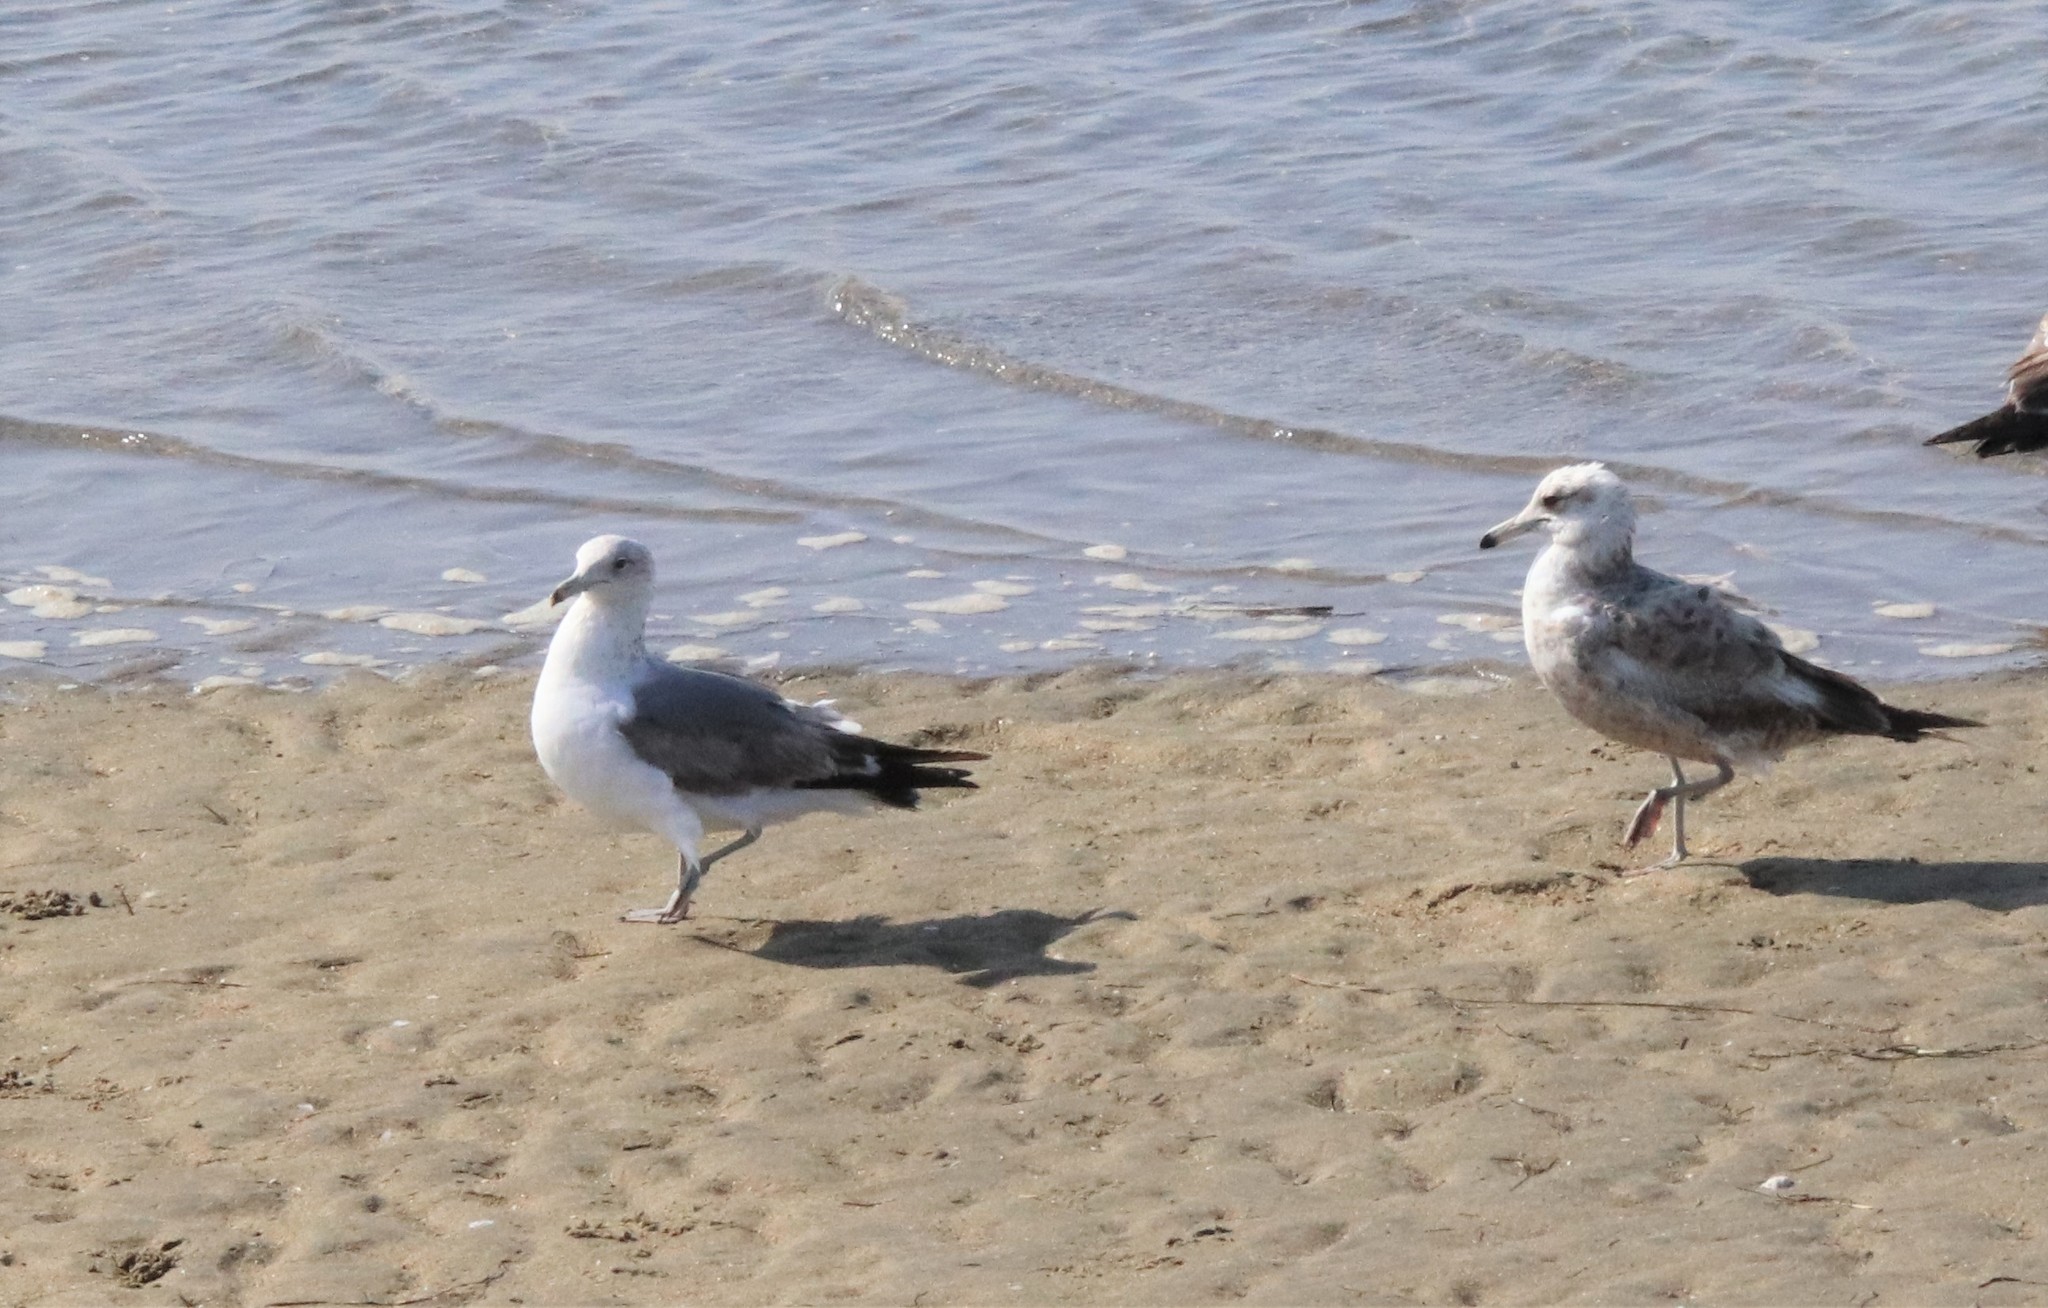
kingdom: Animalia
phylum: Chordata
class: Aves
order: Charadriiformes
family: Laridae
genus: Larus
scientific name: Larus californicus
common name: California gull
